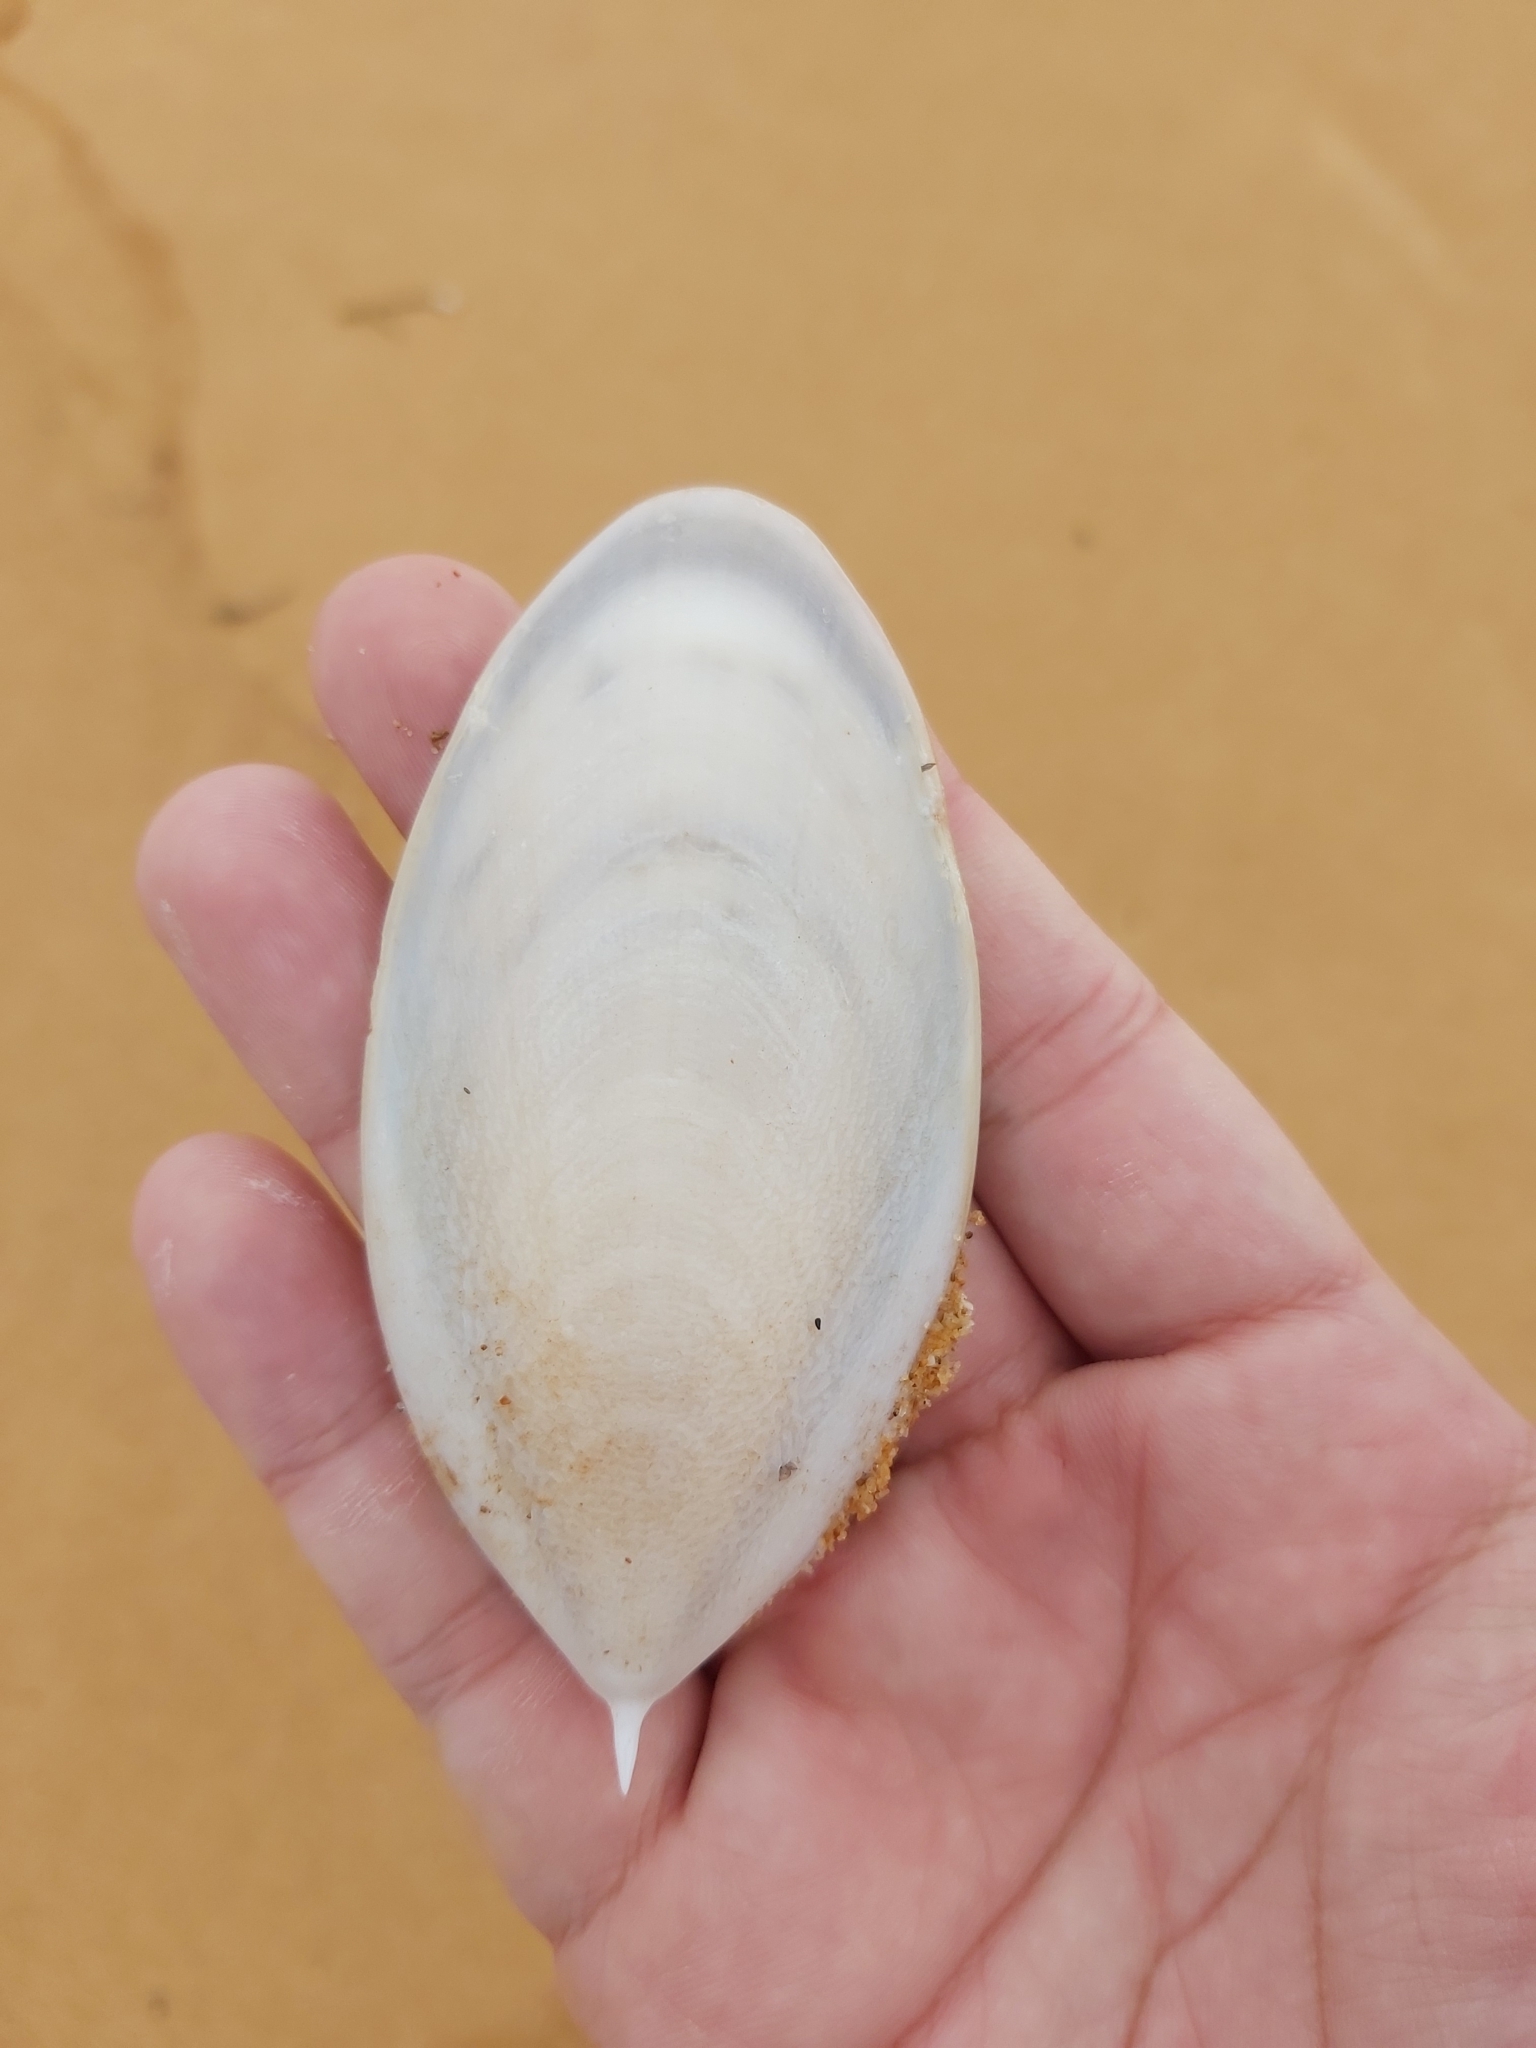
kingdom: Animalia
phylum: Mollusca
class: Cephalopoda
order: Sepiida
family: Sepiidae
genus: Ascarosepion
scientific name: Ascarosepion mestus
